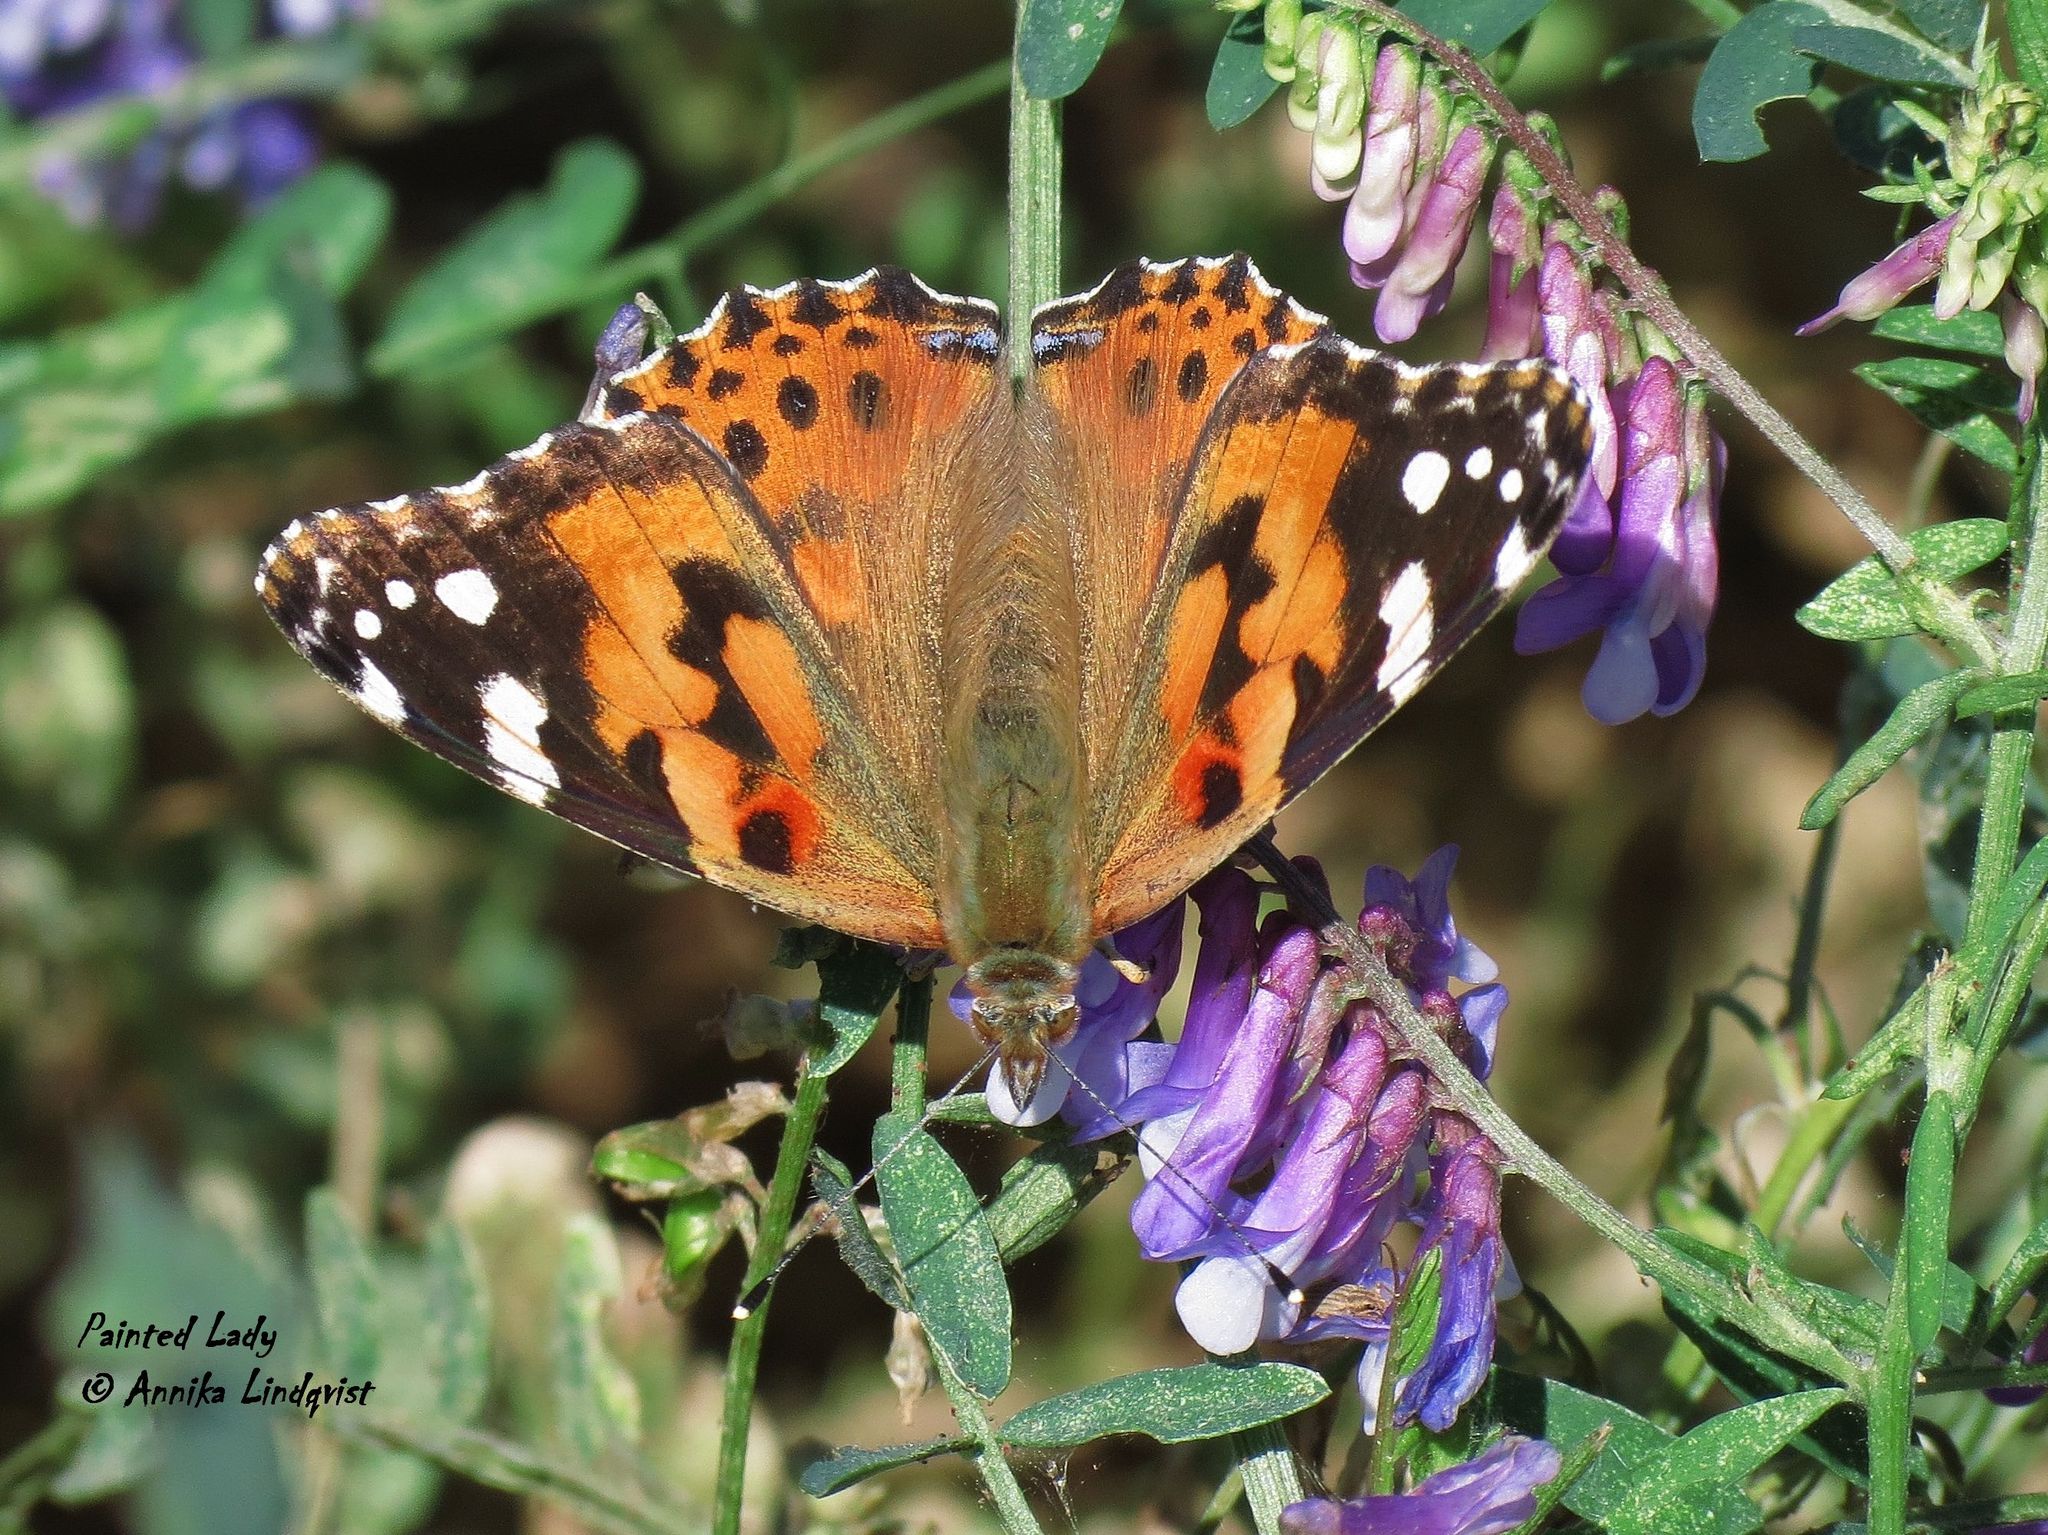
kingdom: Animalia
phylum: Arthropoda
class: Insecta
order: Lepidoptera
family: Nymphalidae
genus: Vanessa
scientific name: Vanessa cardui
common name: Painted lady
